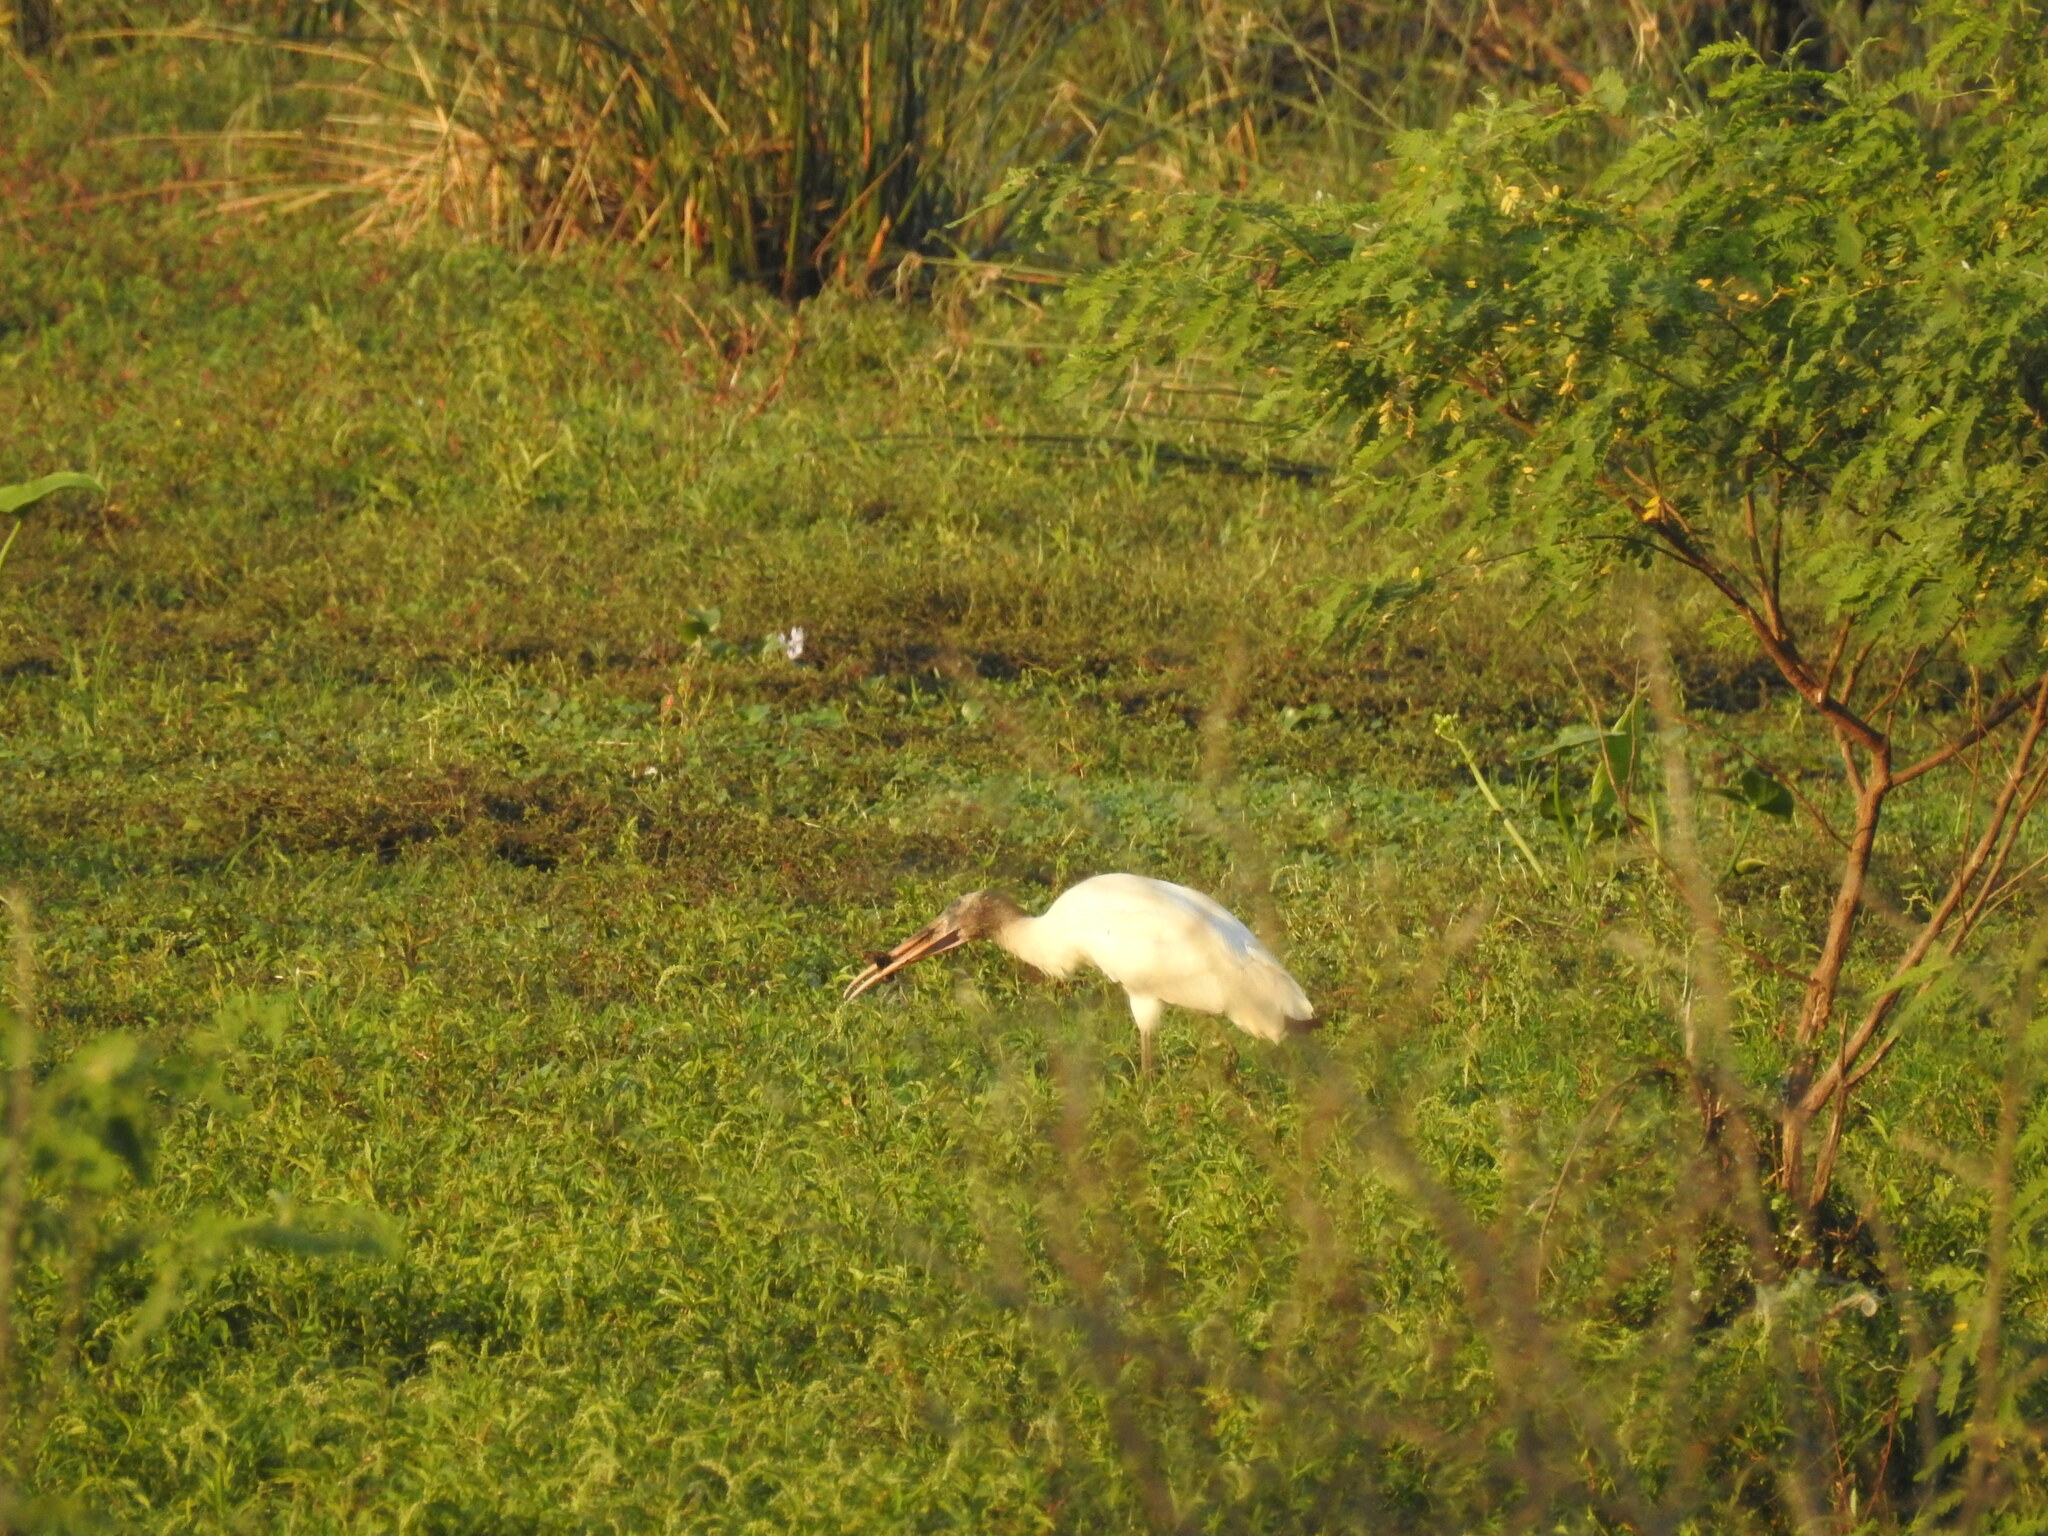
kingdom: Animalia
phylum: Chordata
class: Aves
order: Ciconiiformes
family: Ciconiidae
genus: Mycteria
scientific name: Mycteria americana
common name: Wood stork
